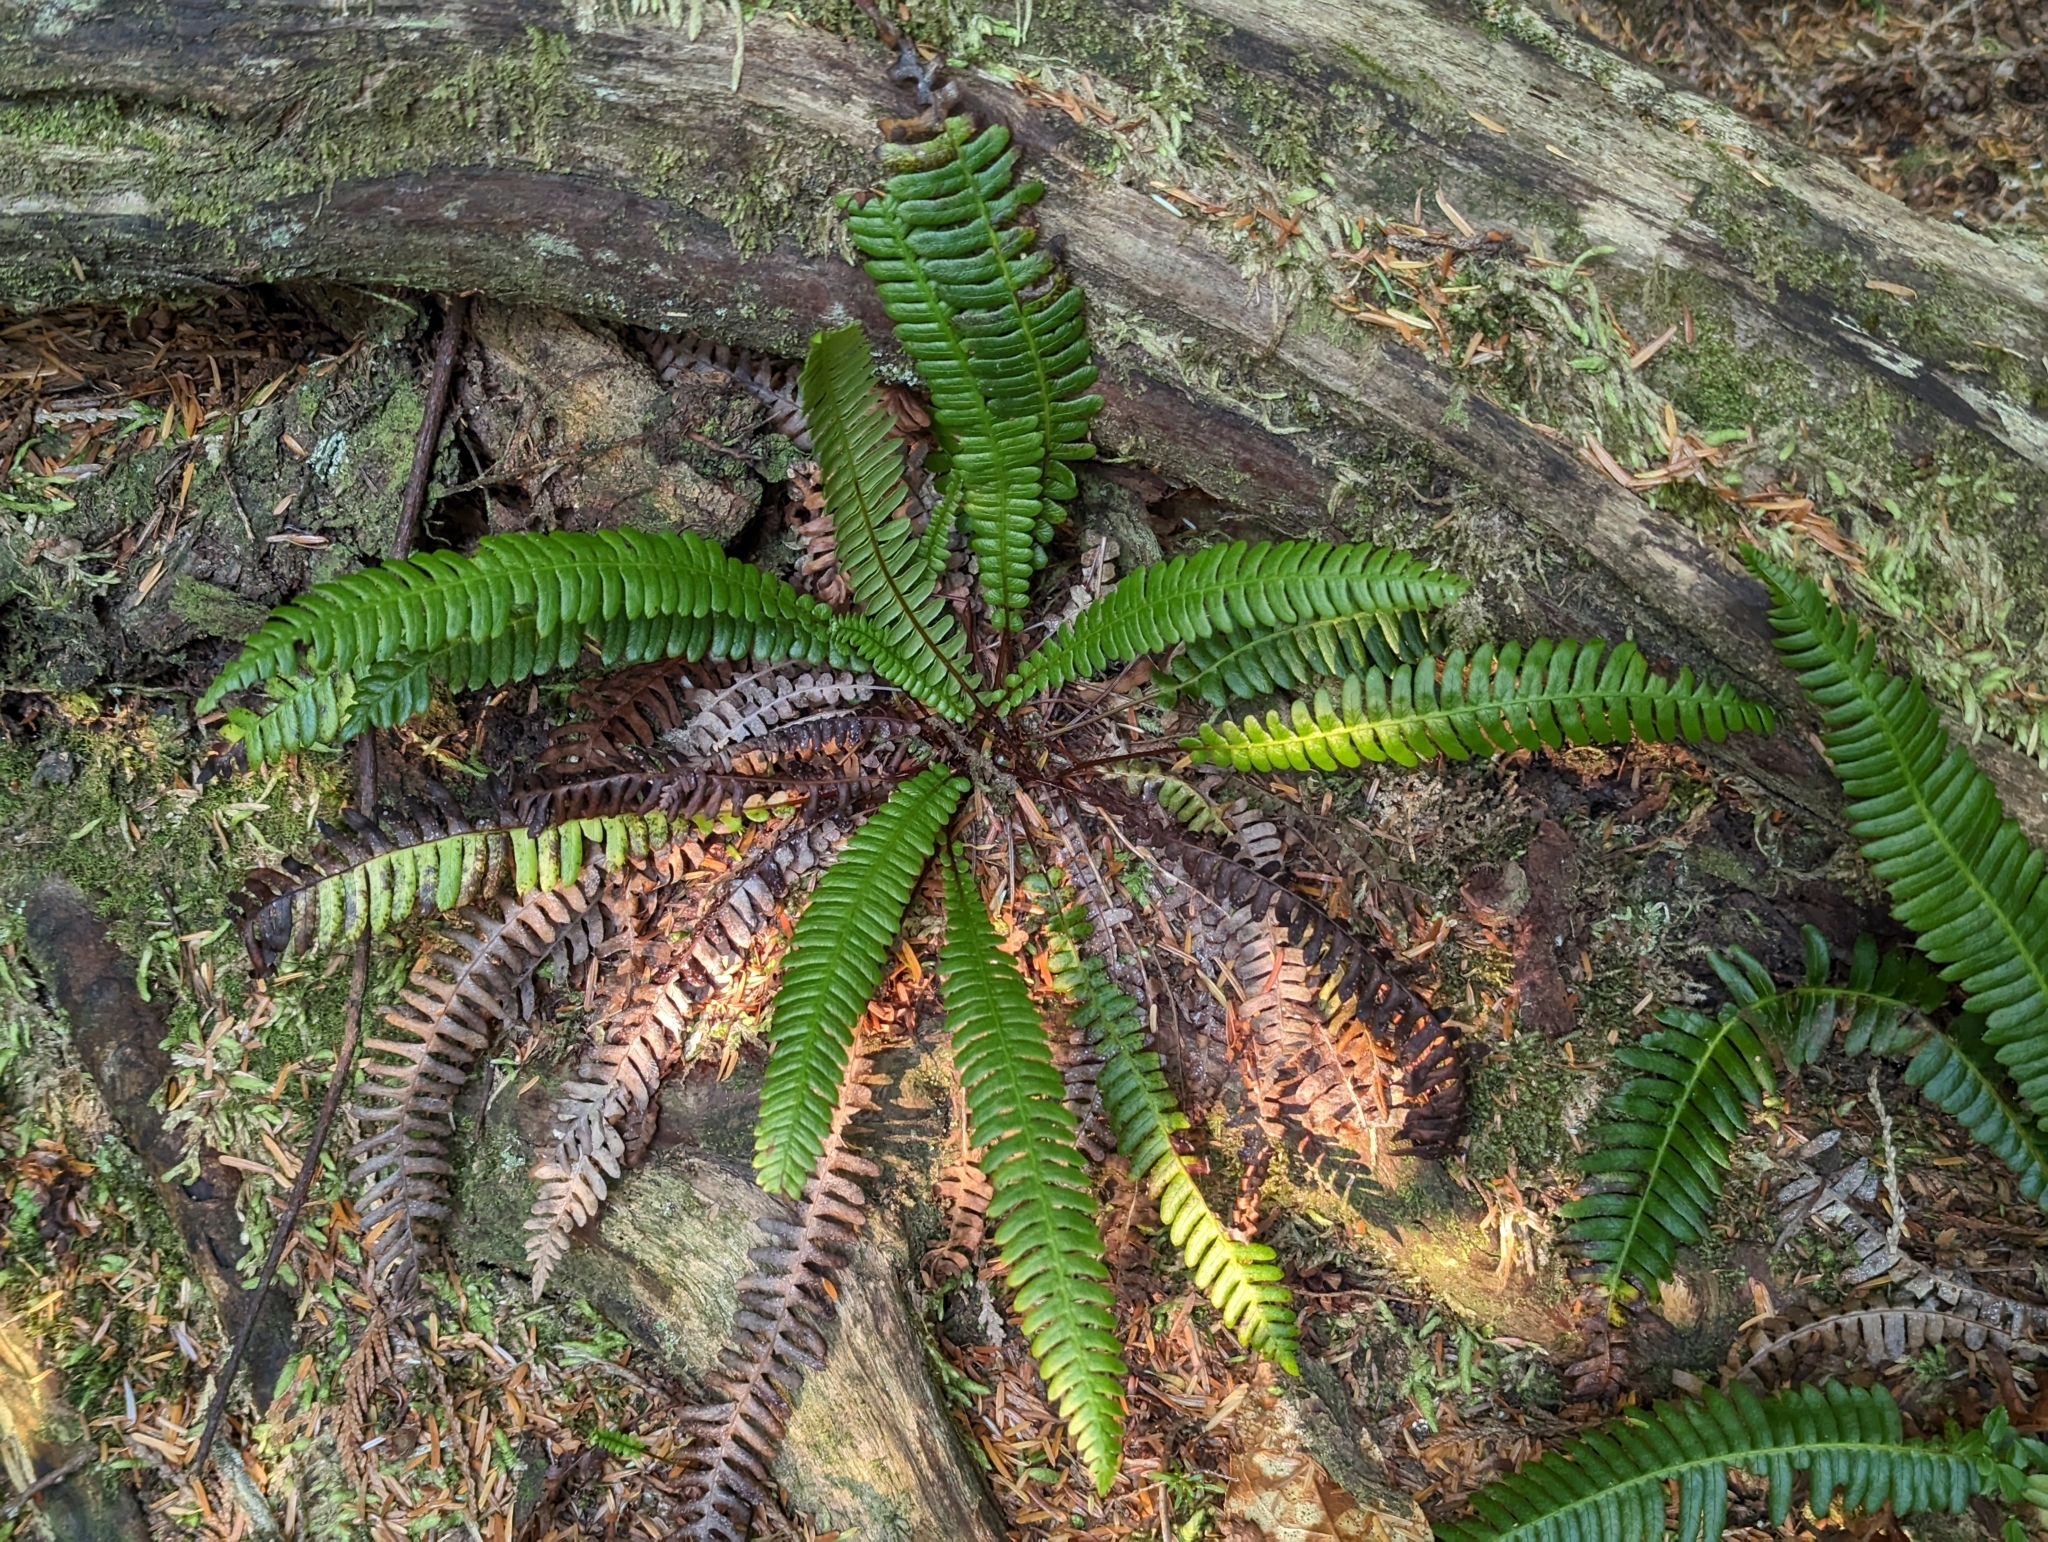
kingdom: Plantae
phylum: Tracheophyta
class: Polypodiopsida
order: Polypodiales
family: Blechnaceae
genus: Struthiopteris
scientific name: Struthiopteris spicant
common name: Deer fern
